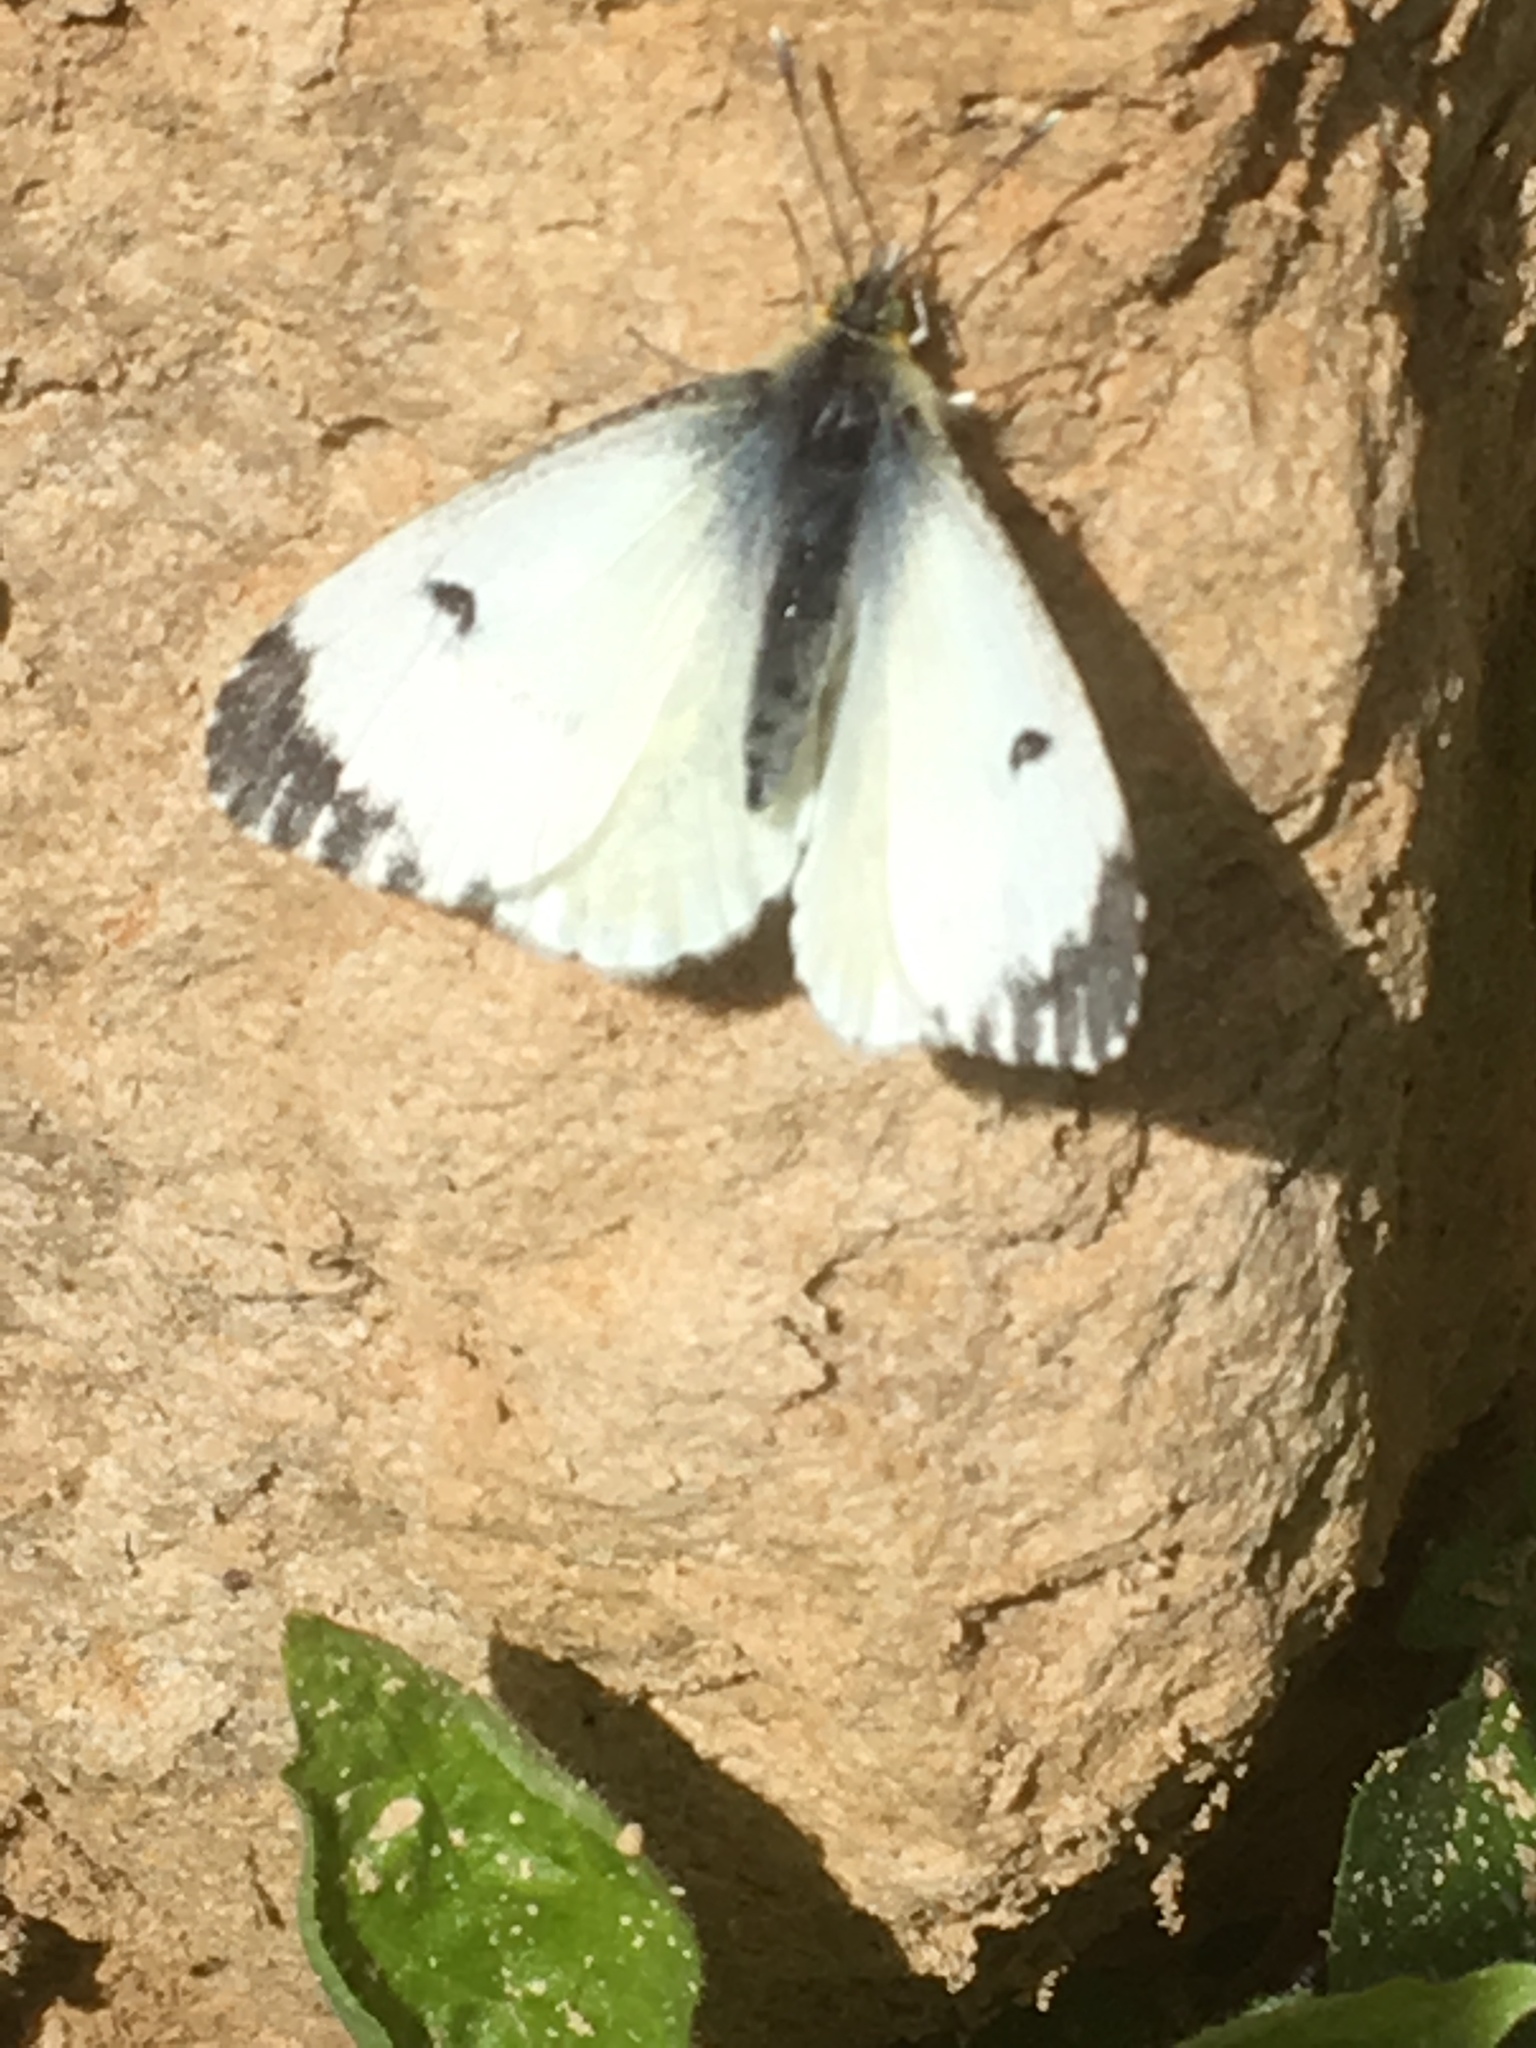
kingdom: Animalia
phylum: Arthropoda
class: Insecta
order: Lepidoptera
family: Pieridae
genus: Anthocharis
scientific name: Anthocharis cardamines
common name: Orange-tip
